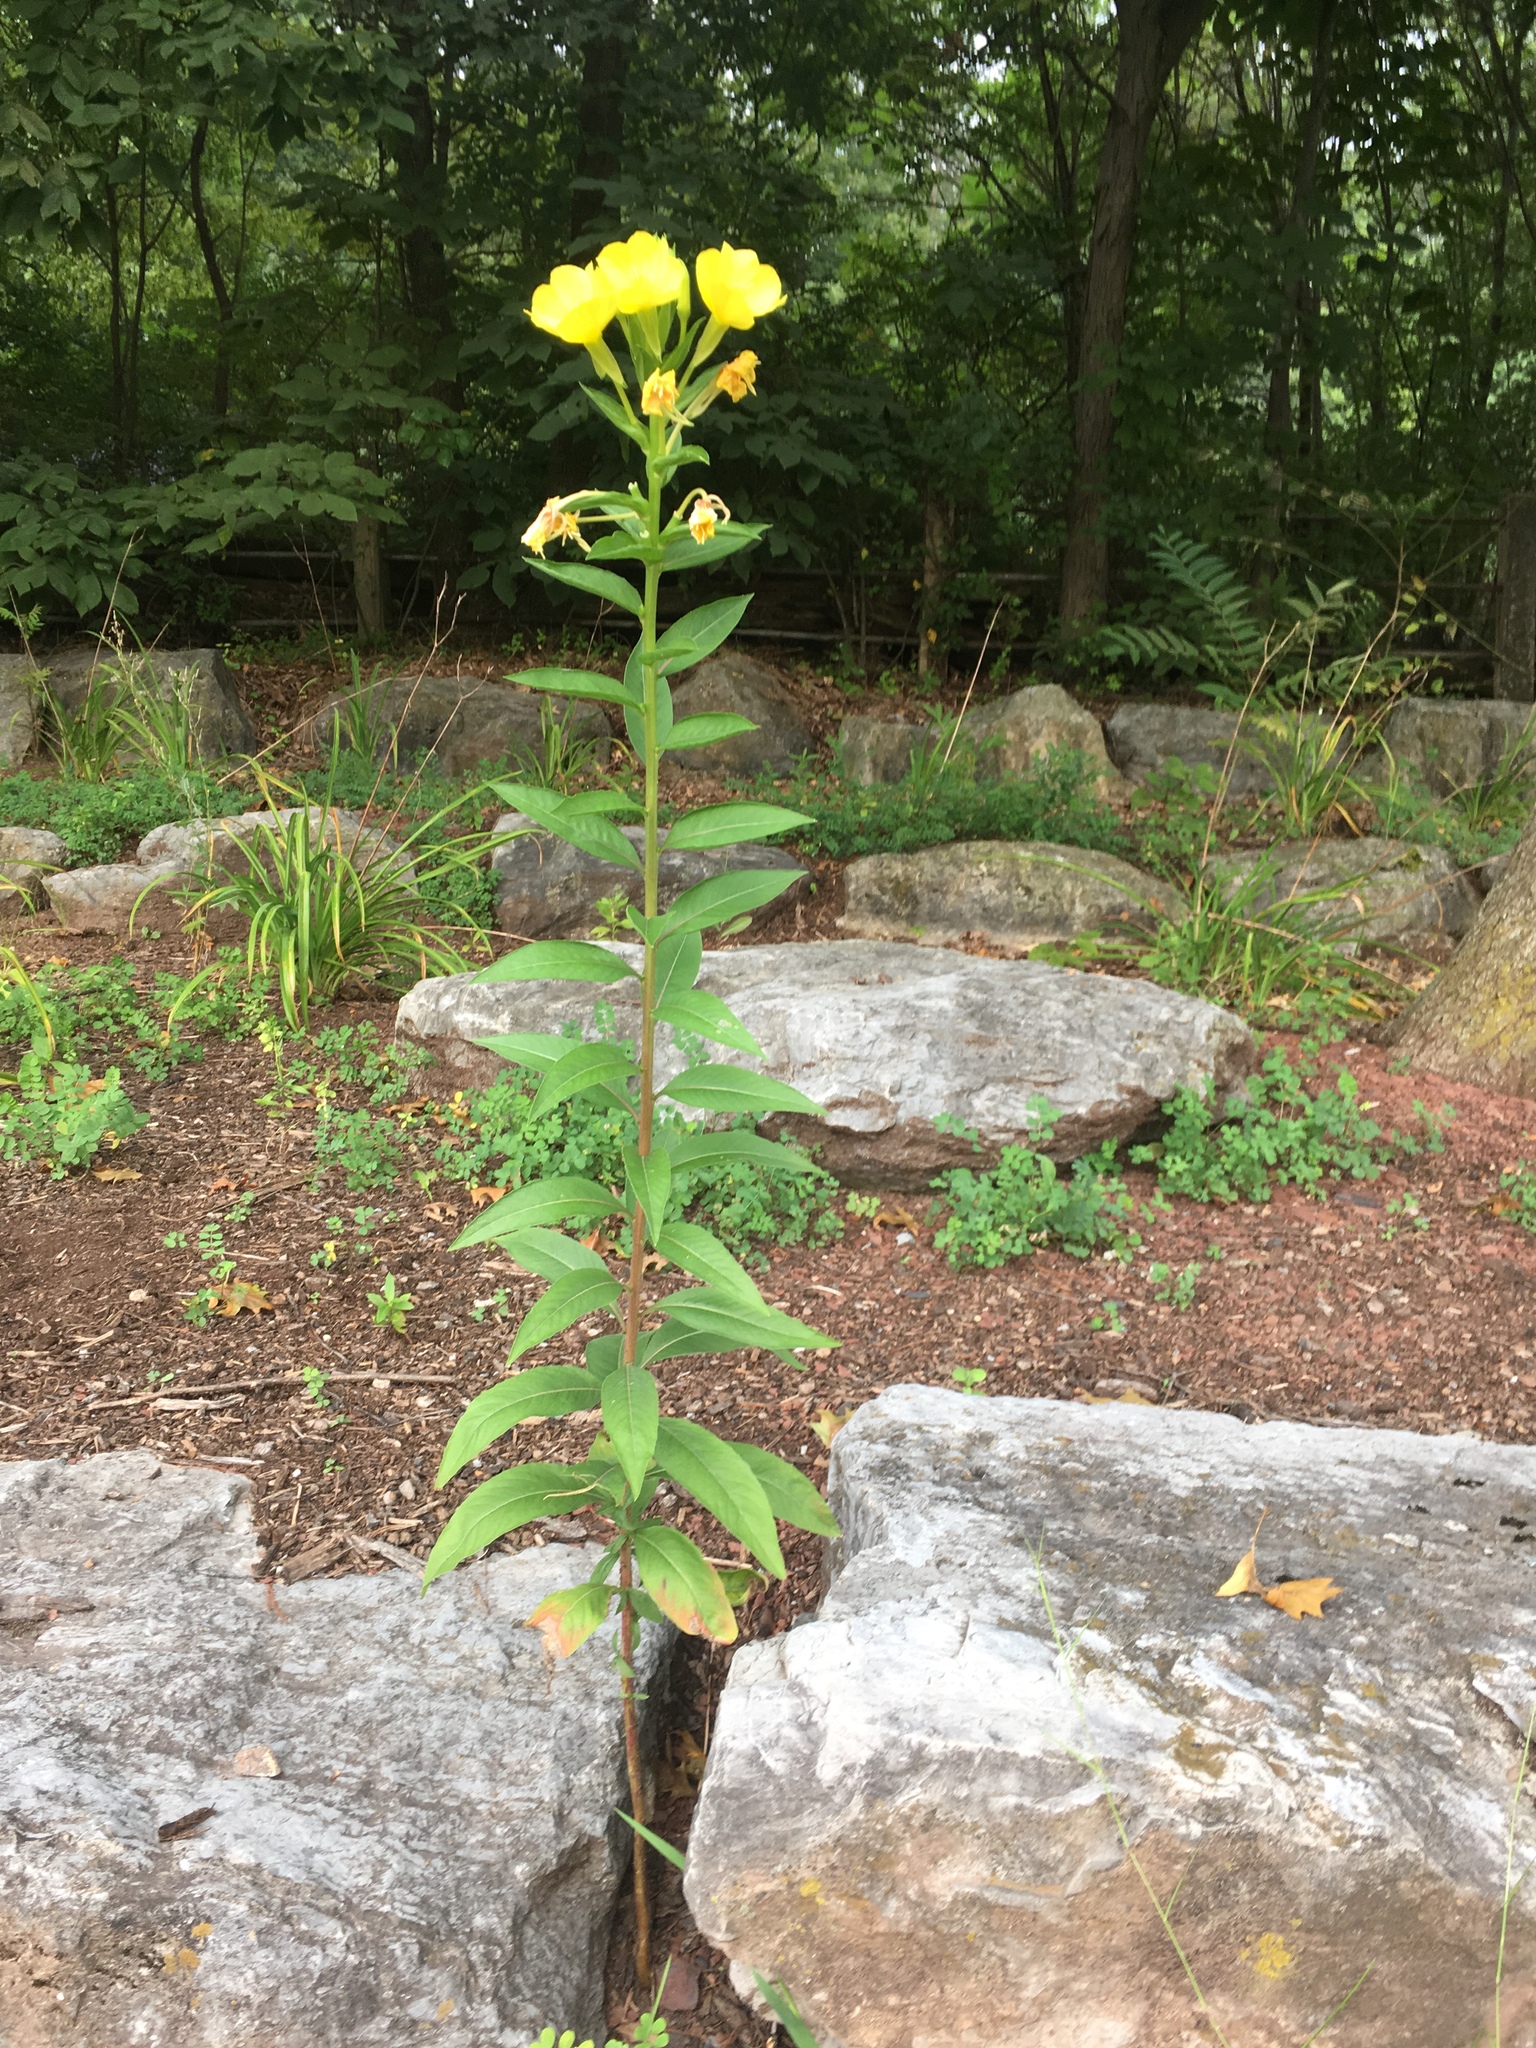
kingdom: Plantae
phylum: Tracheophyta
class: Magnoliopsida
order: Myrtales
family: Onagraceae
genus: Oenothera
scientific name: Oenothera biennis
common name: Common evening-primrose
